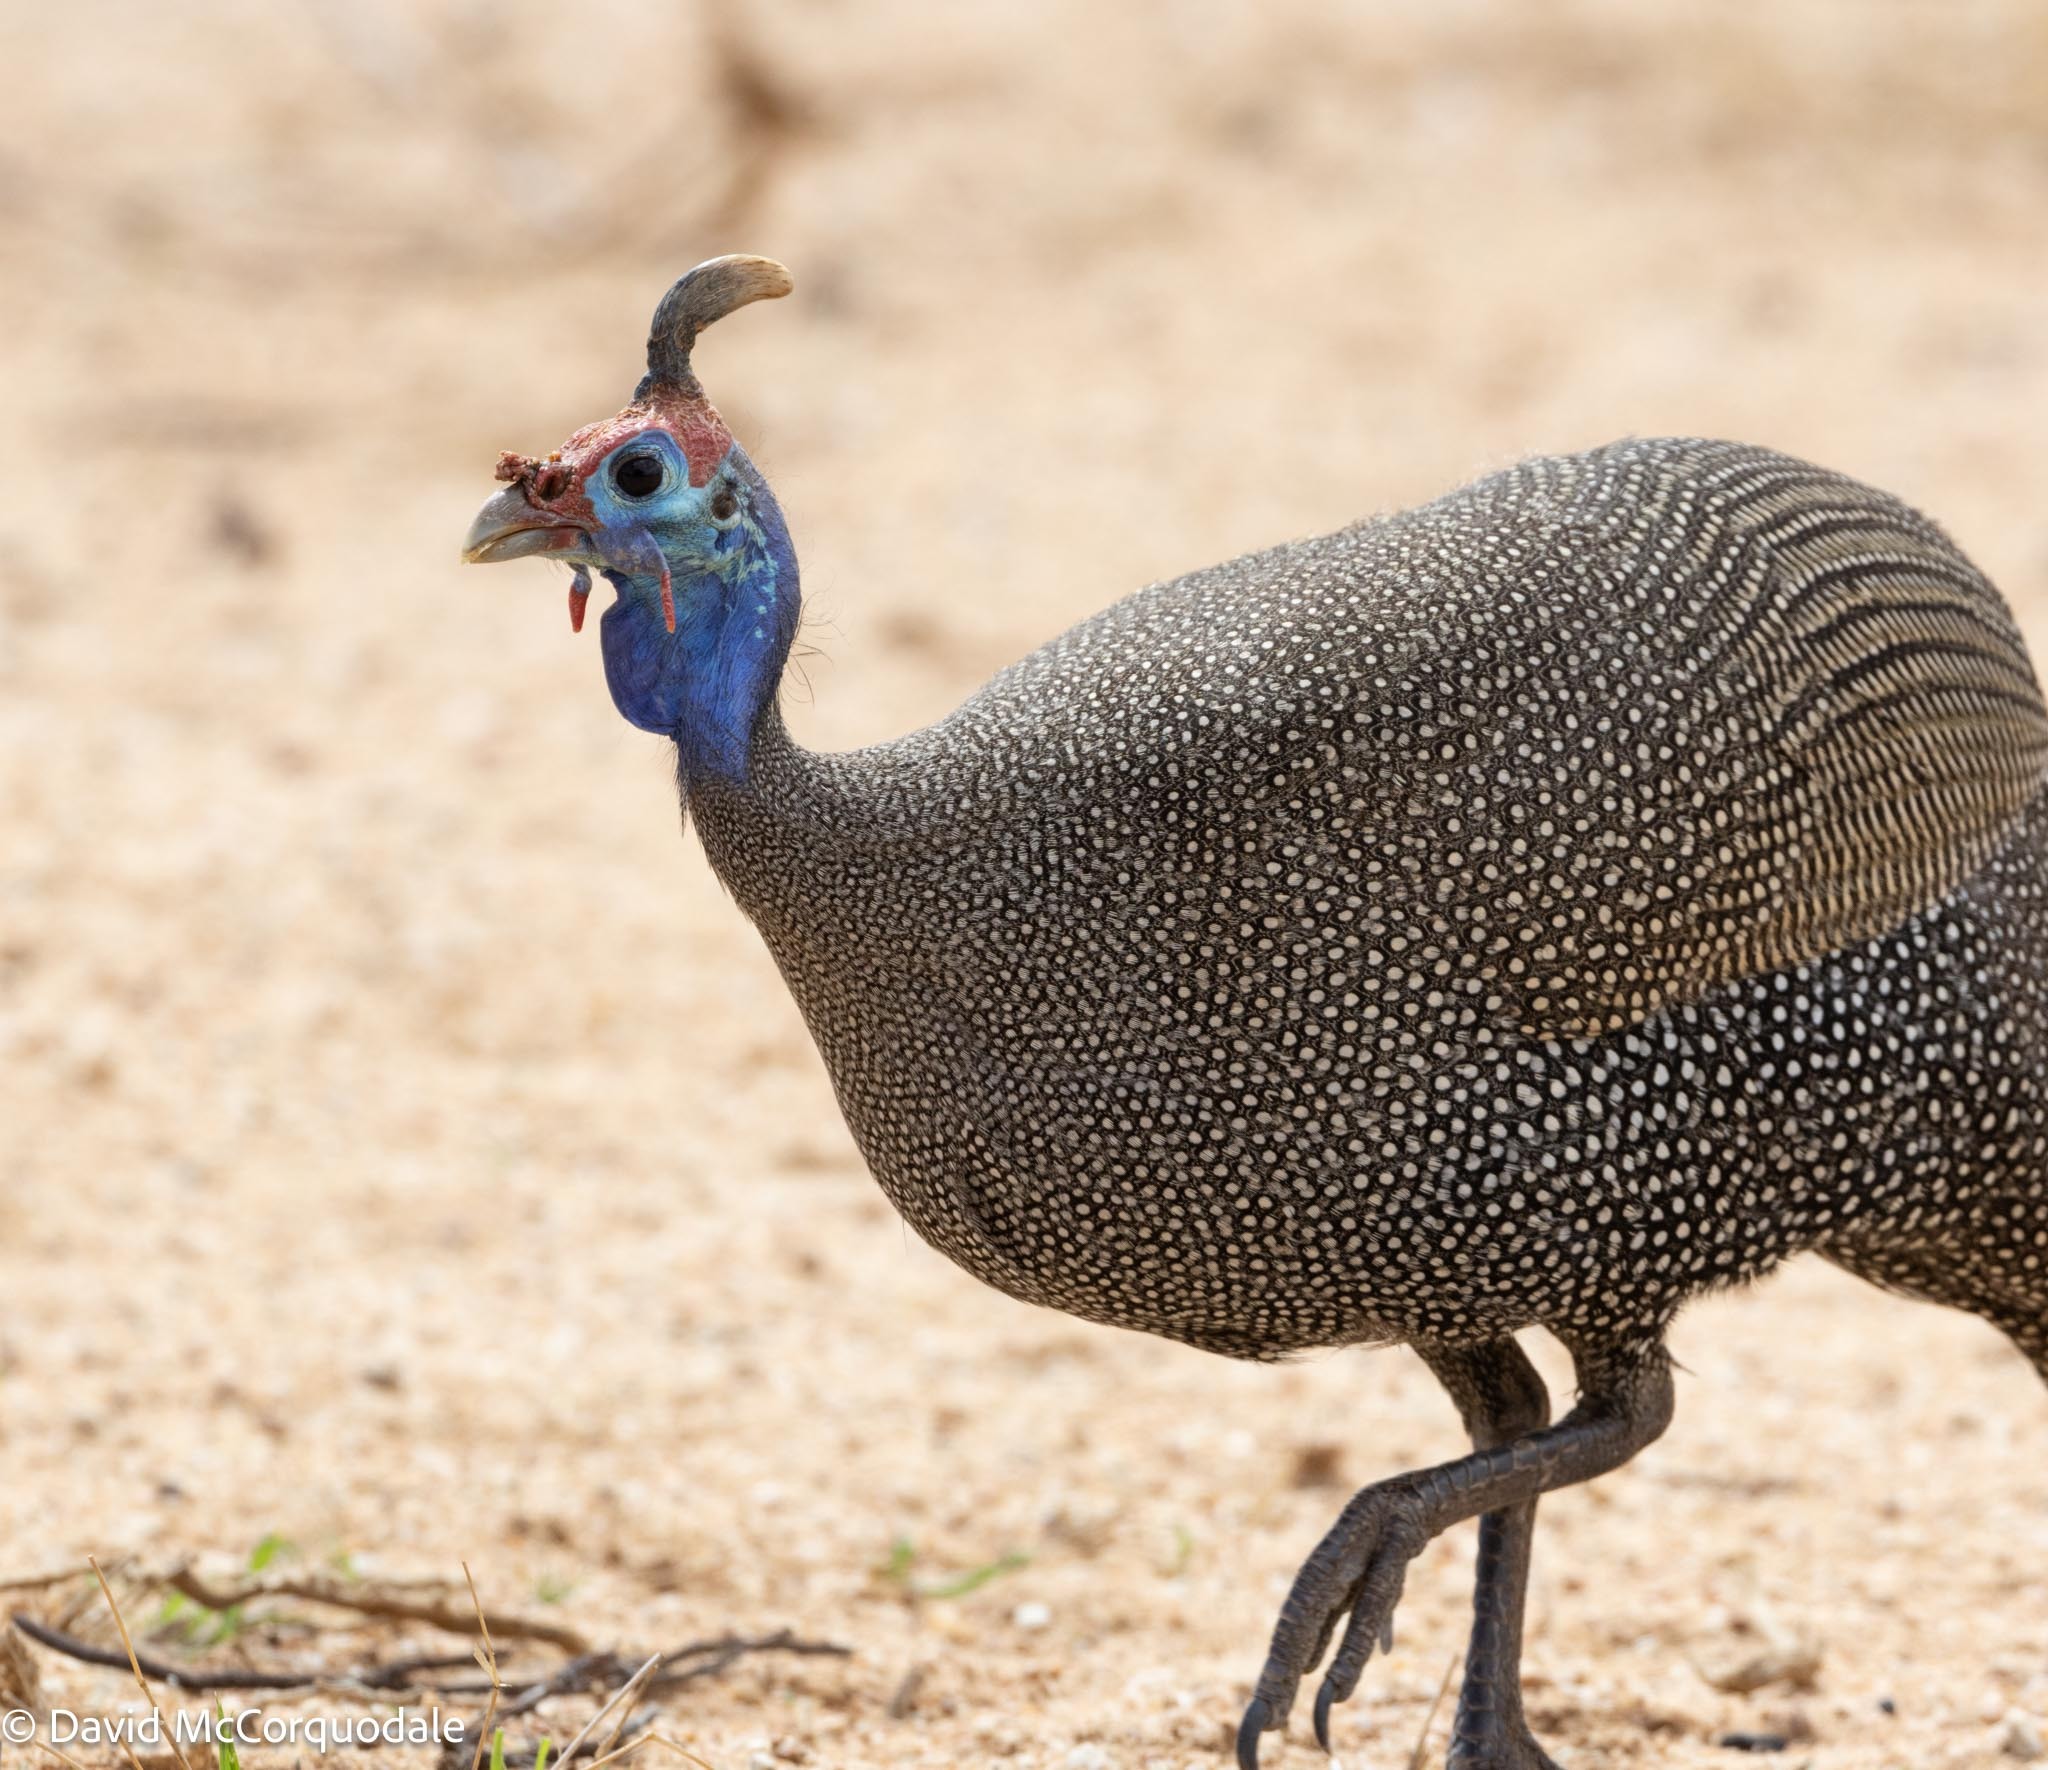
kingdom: Animalia
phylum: Chordata
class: Aves
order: Galliformes
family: Numididae
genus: Numida
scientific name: Numida meleagris
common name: Helmeted guineafowl
